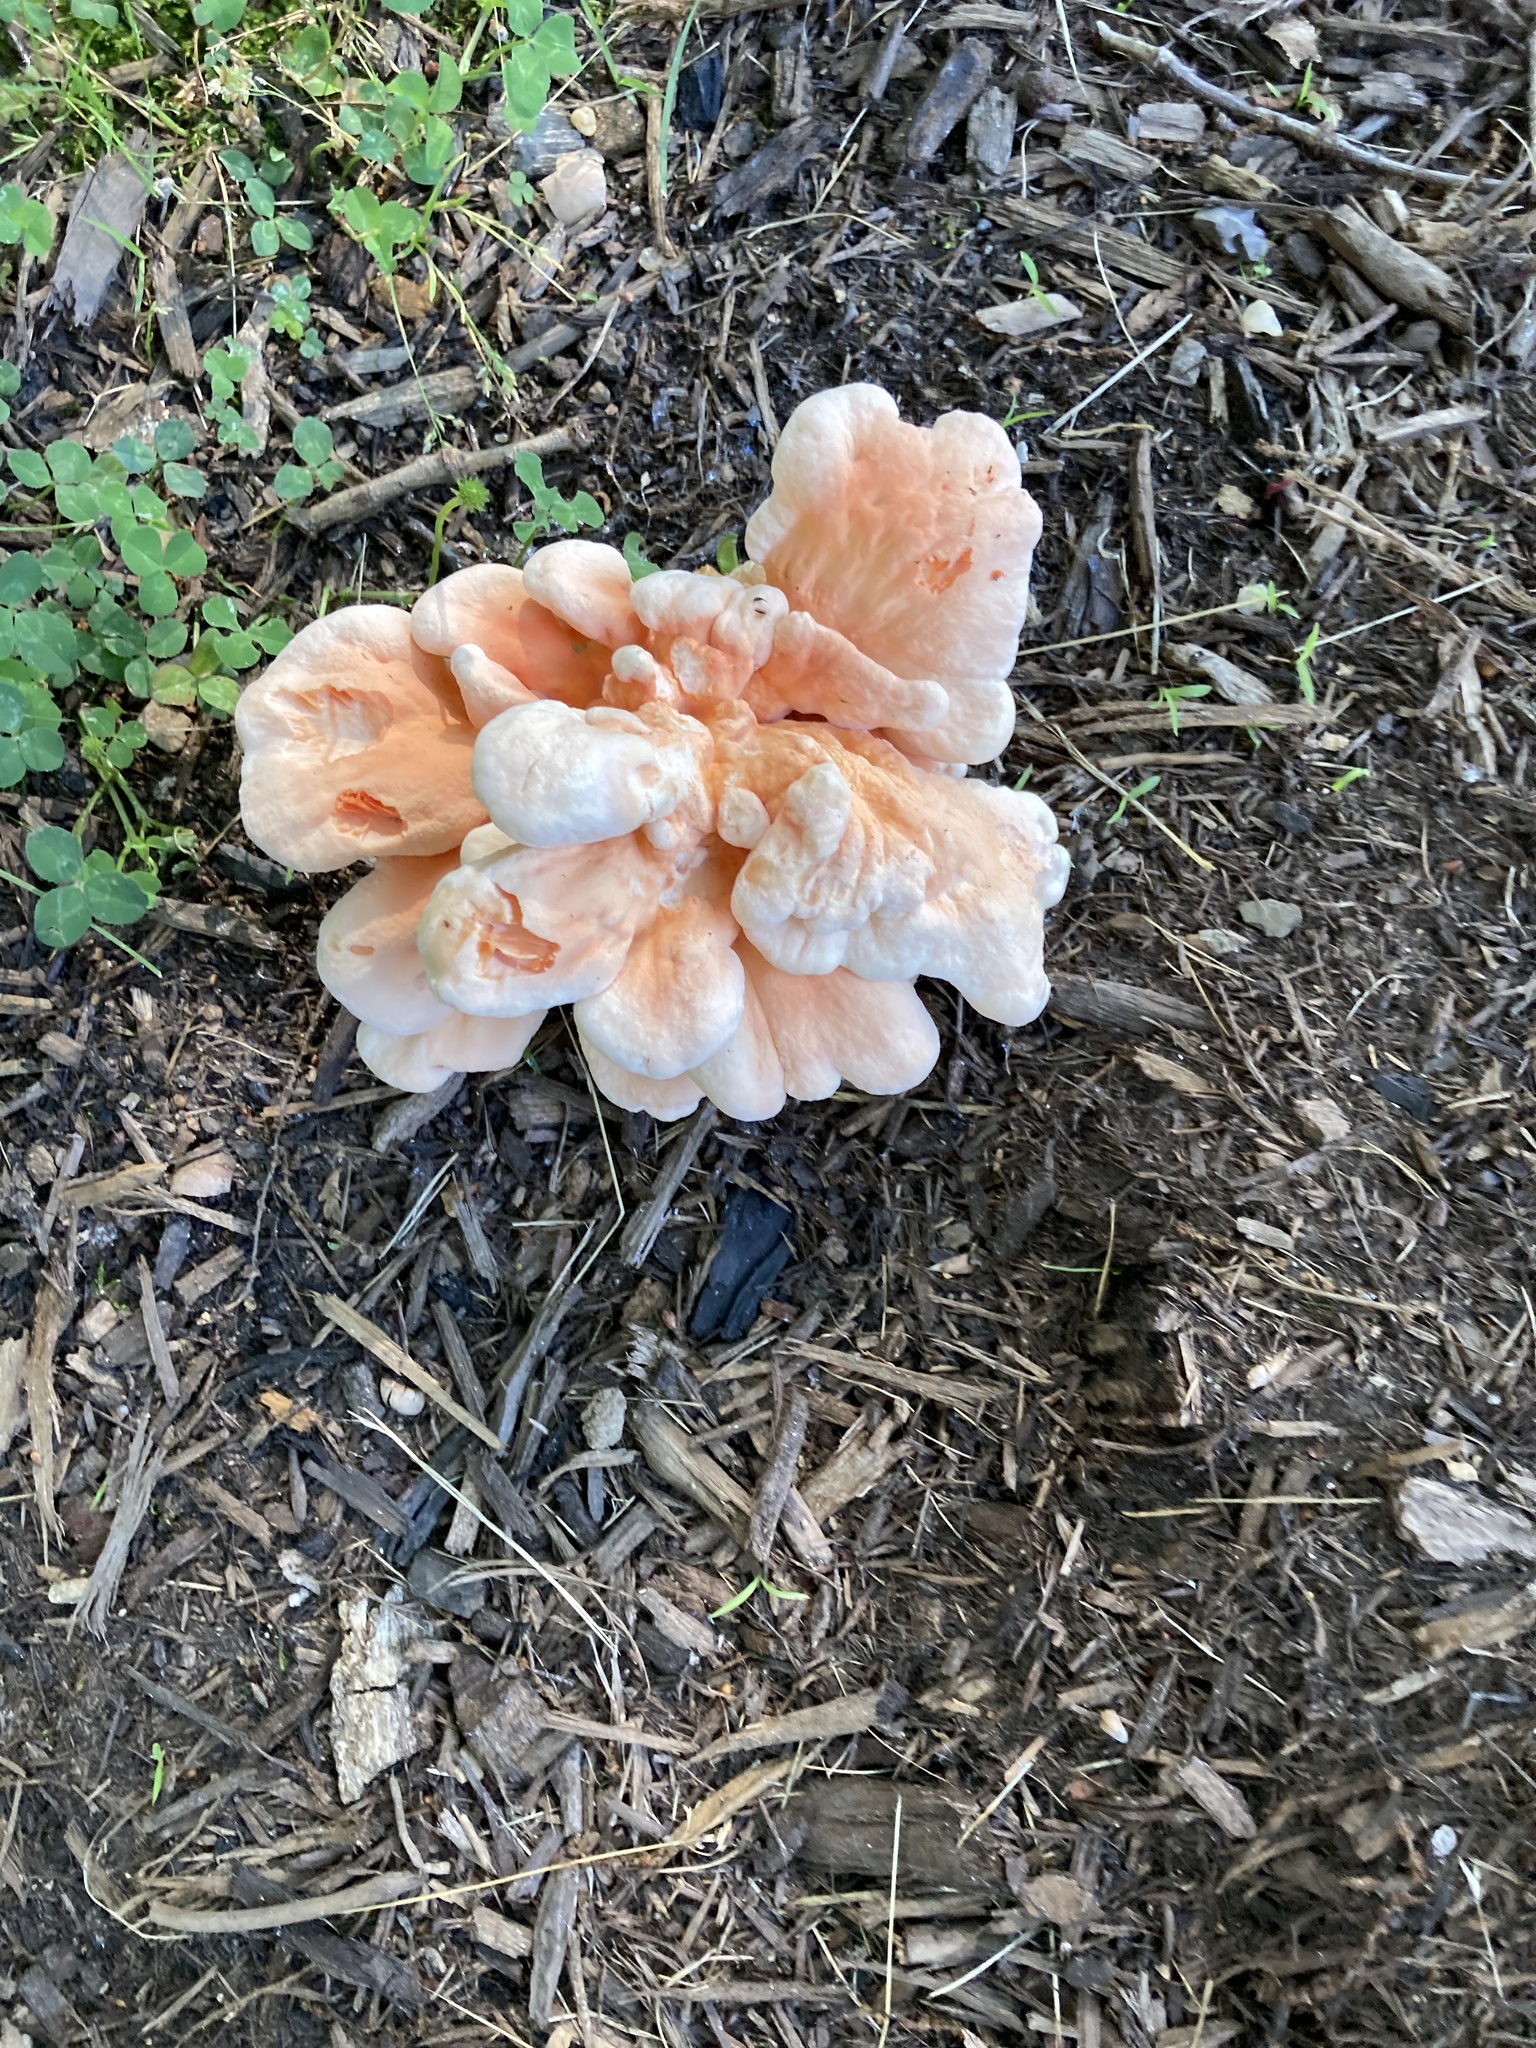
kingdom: Fungi
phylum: Basidiomycota
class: Agaricomycetes
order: Polyporales
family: Laetiporaceae
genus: Laetiporus
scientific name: Laetiporus sulphureus
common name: Chicken of the woods
